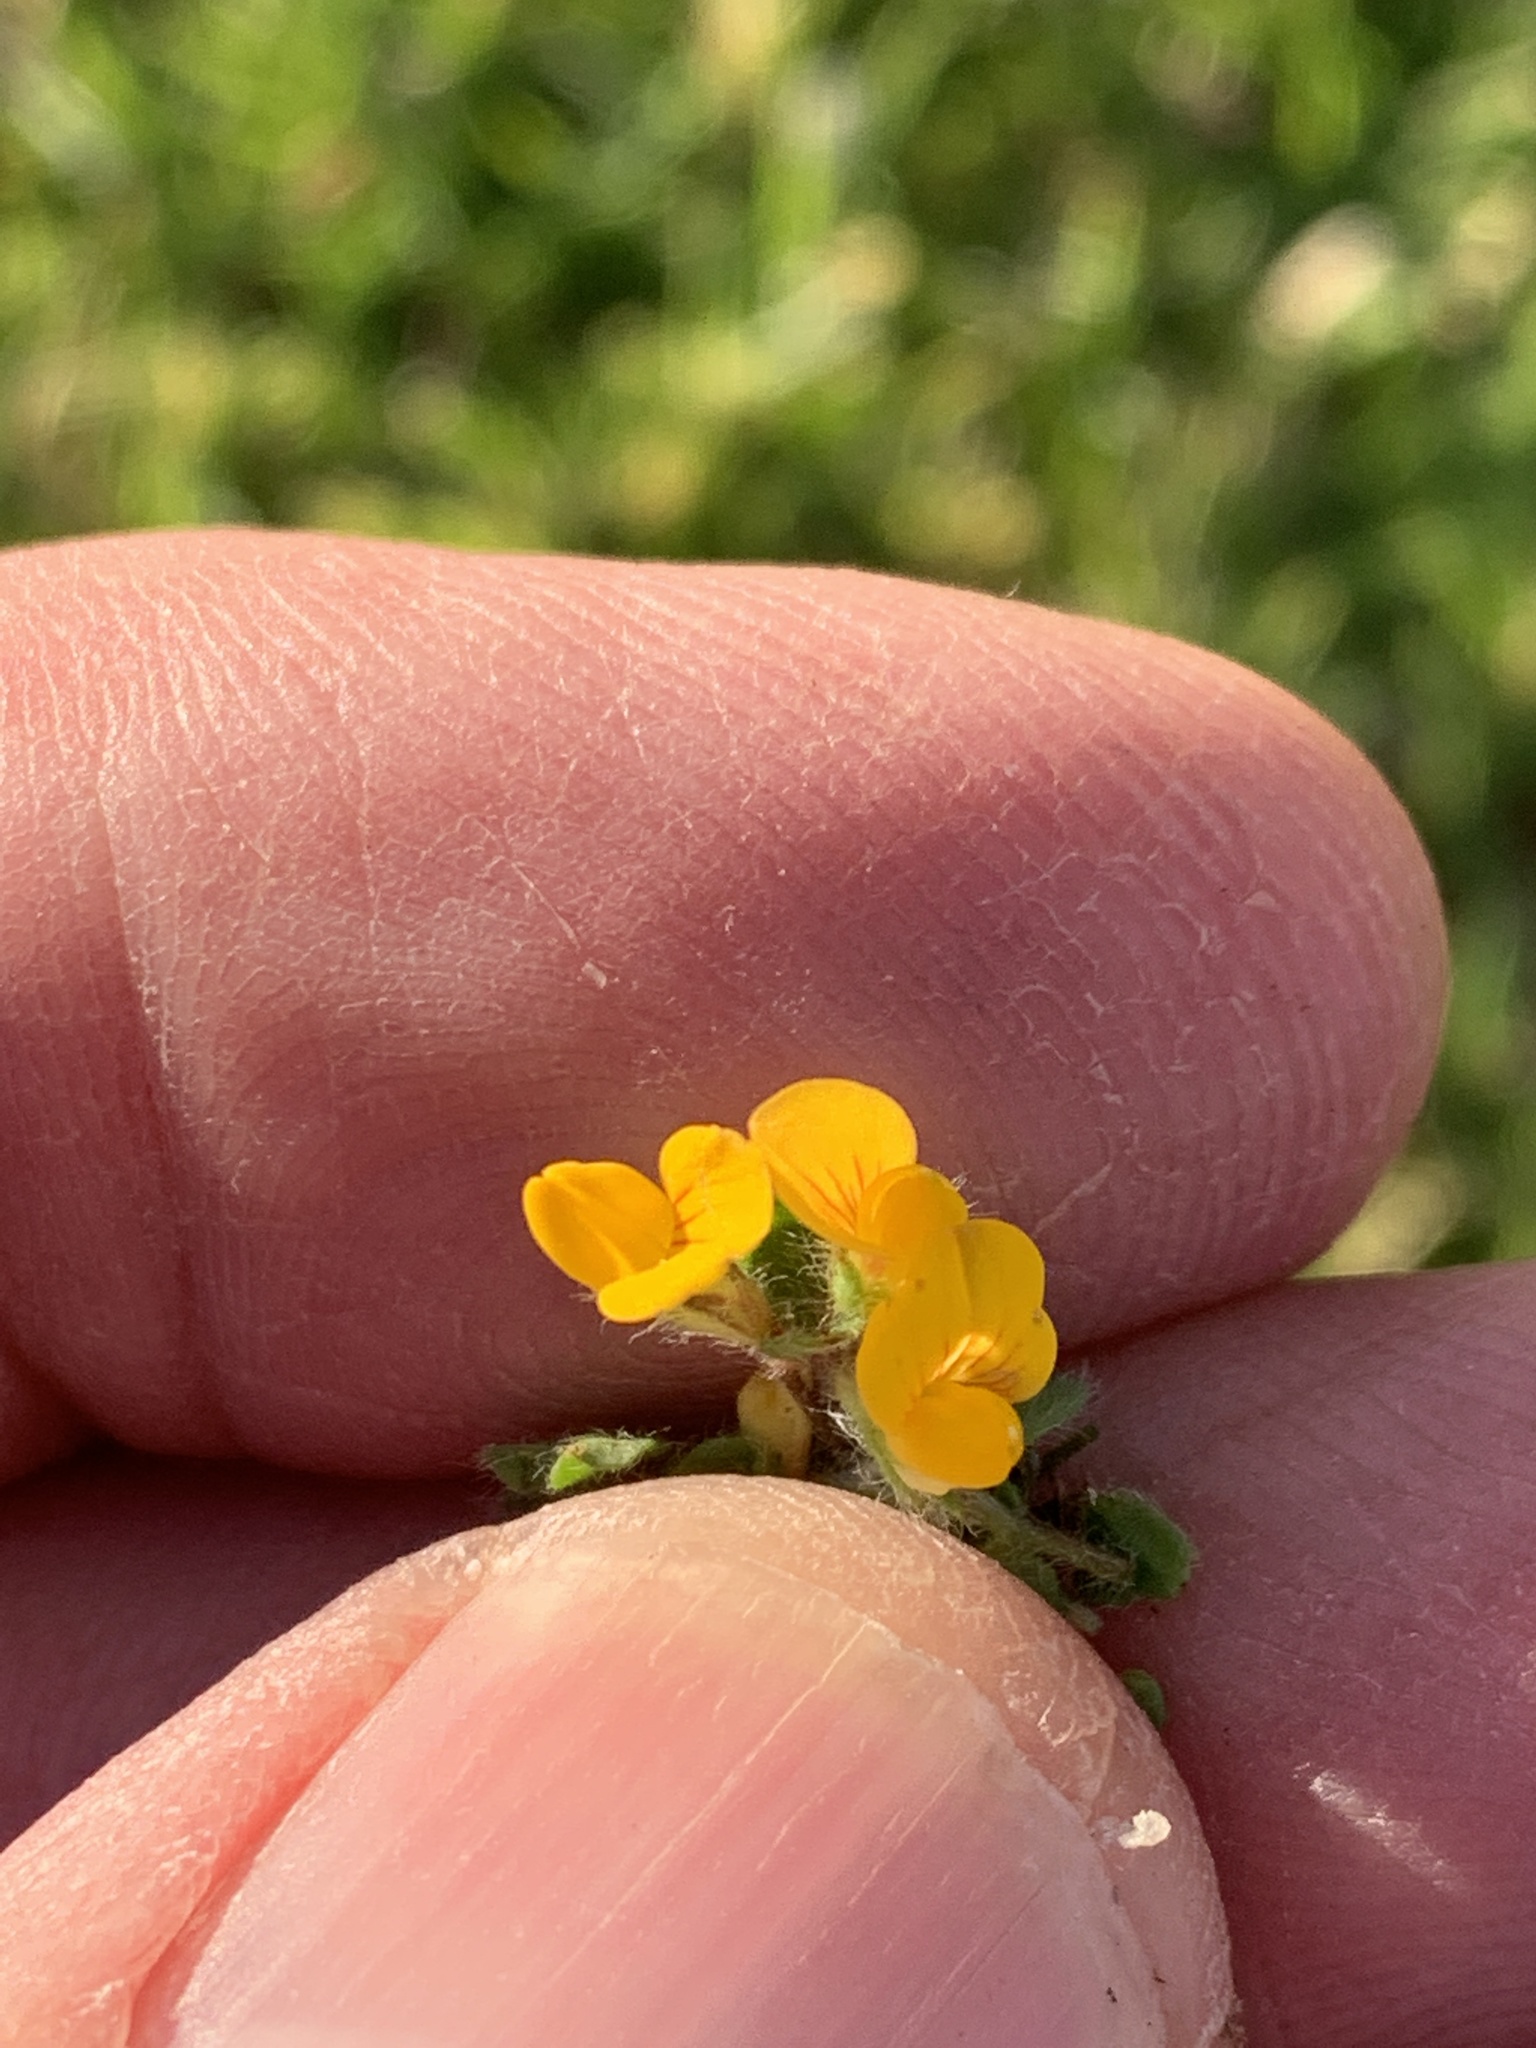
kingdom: Plantae
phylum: Tracheophyta
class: Magnoliopsida
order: Fabales
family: Fabaceae
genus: Lotus
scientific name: Lotus subbiflorus
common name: Hairy bird's-foot trefoil
